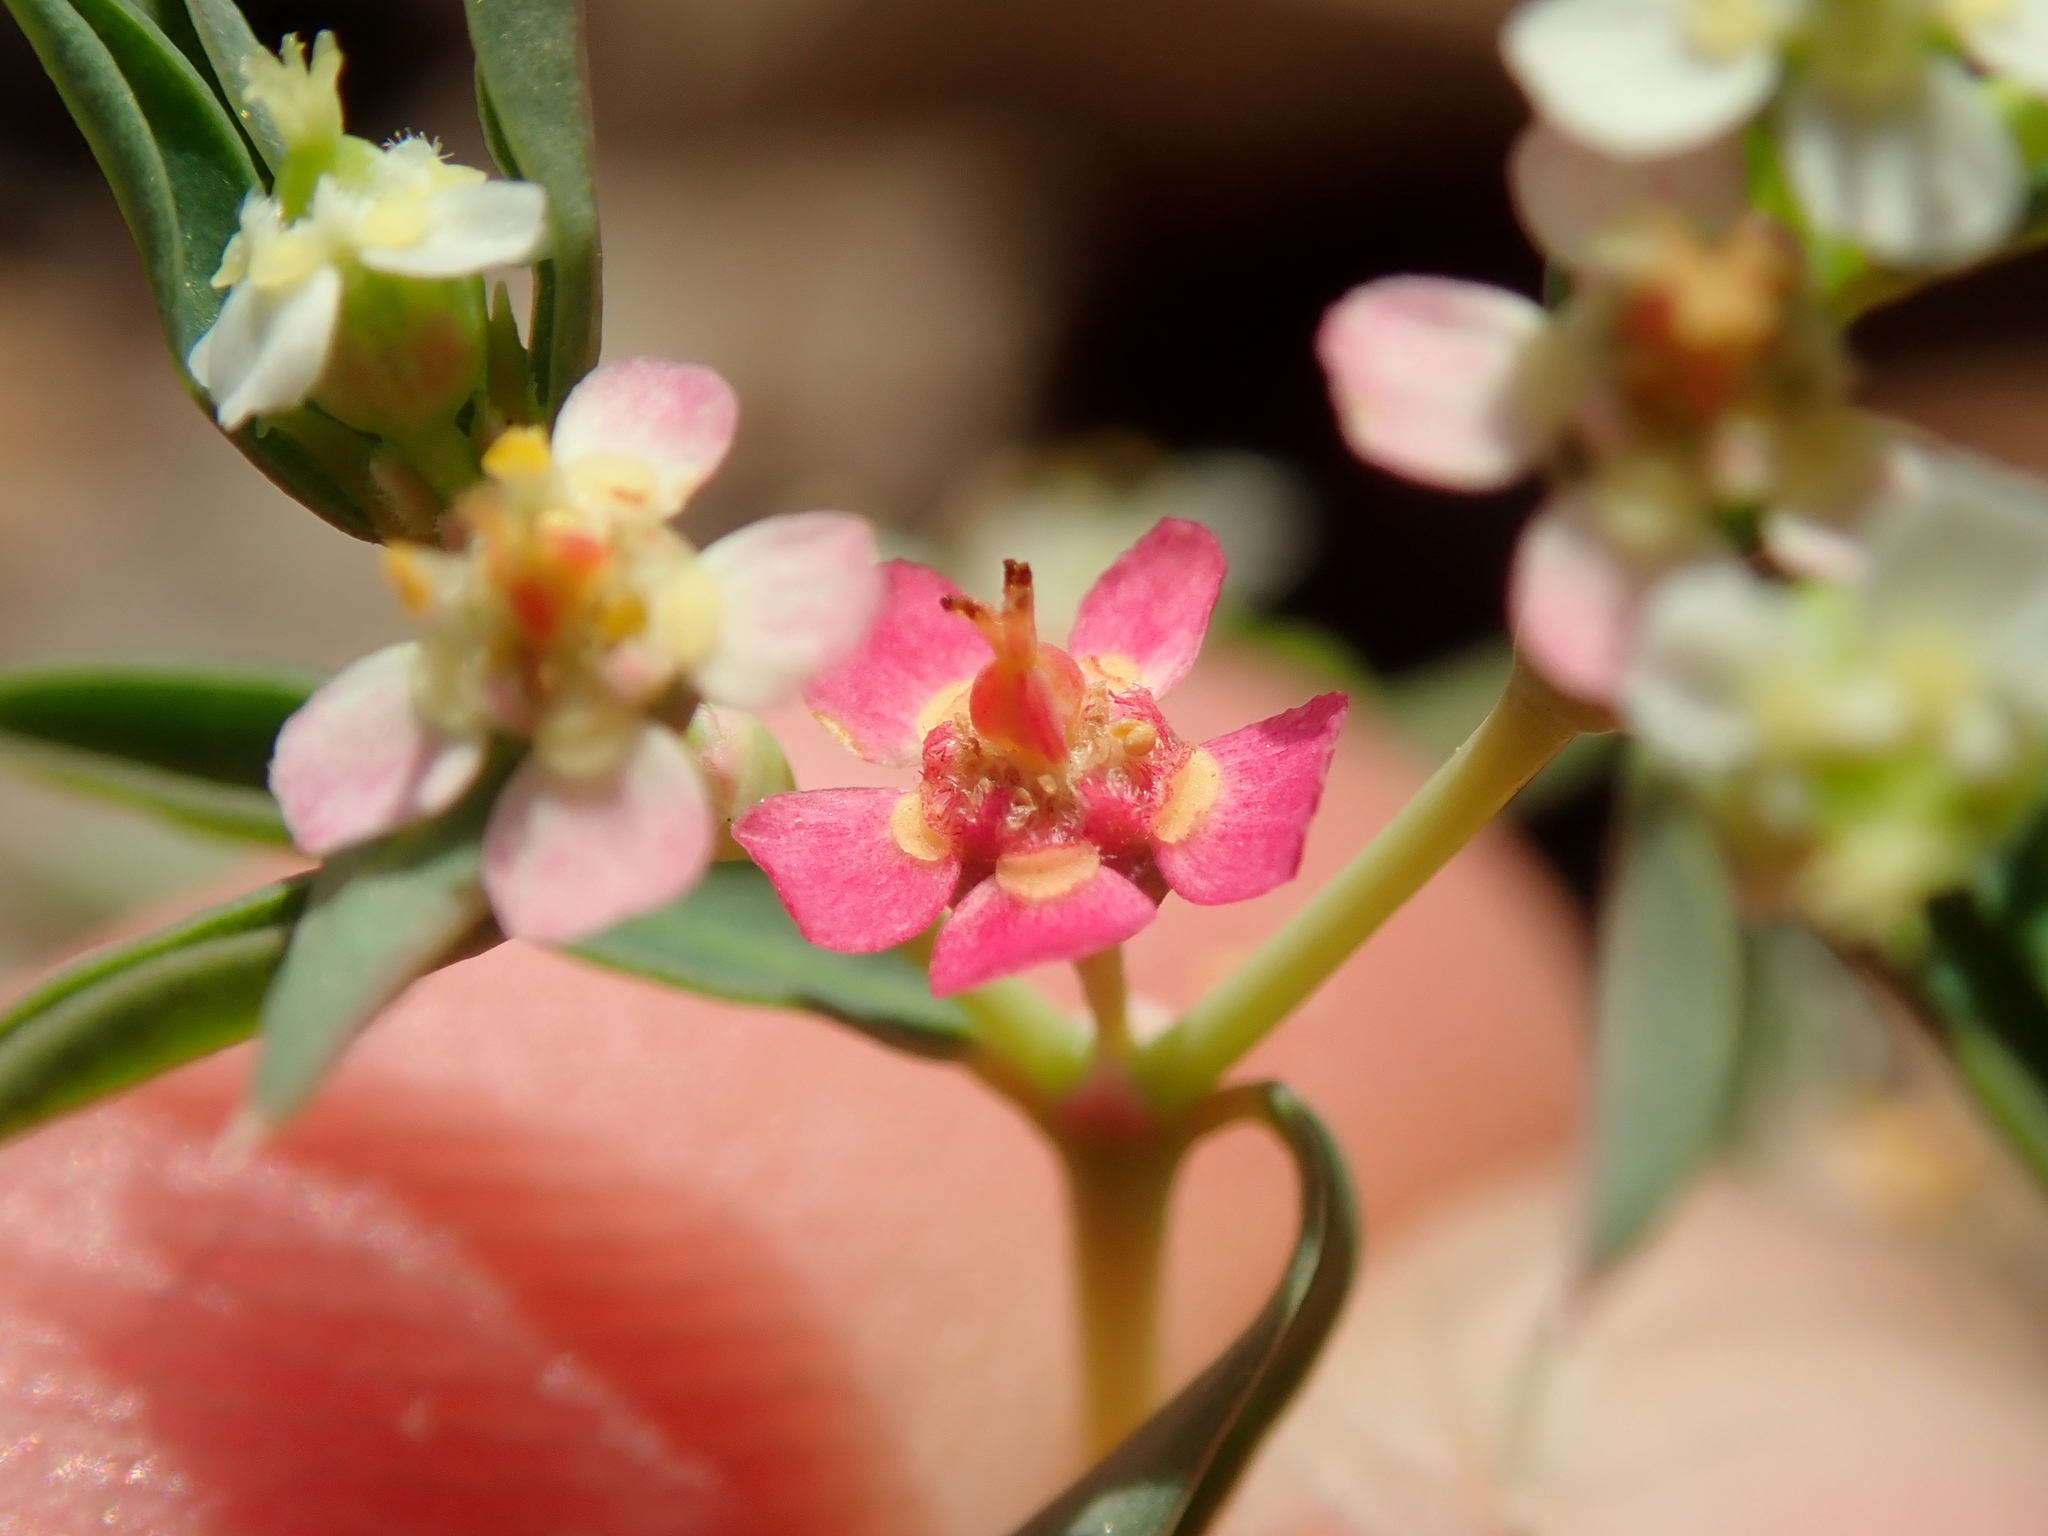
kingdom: Plantae
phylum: Tracheophyta
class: Magnoliopsida
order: Malpighiales
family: Euphorbiaceae
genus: Euphorbia
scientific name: Euphorbia potentilloides
